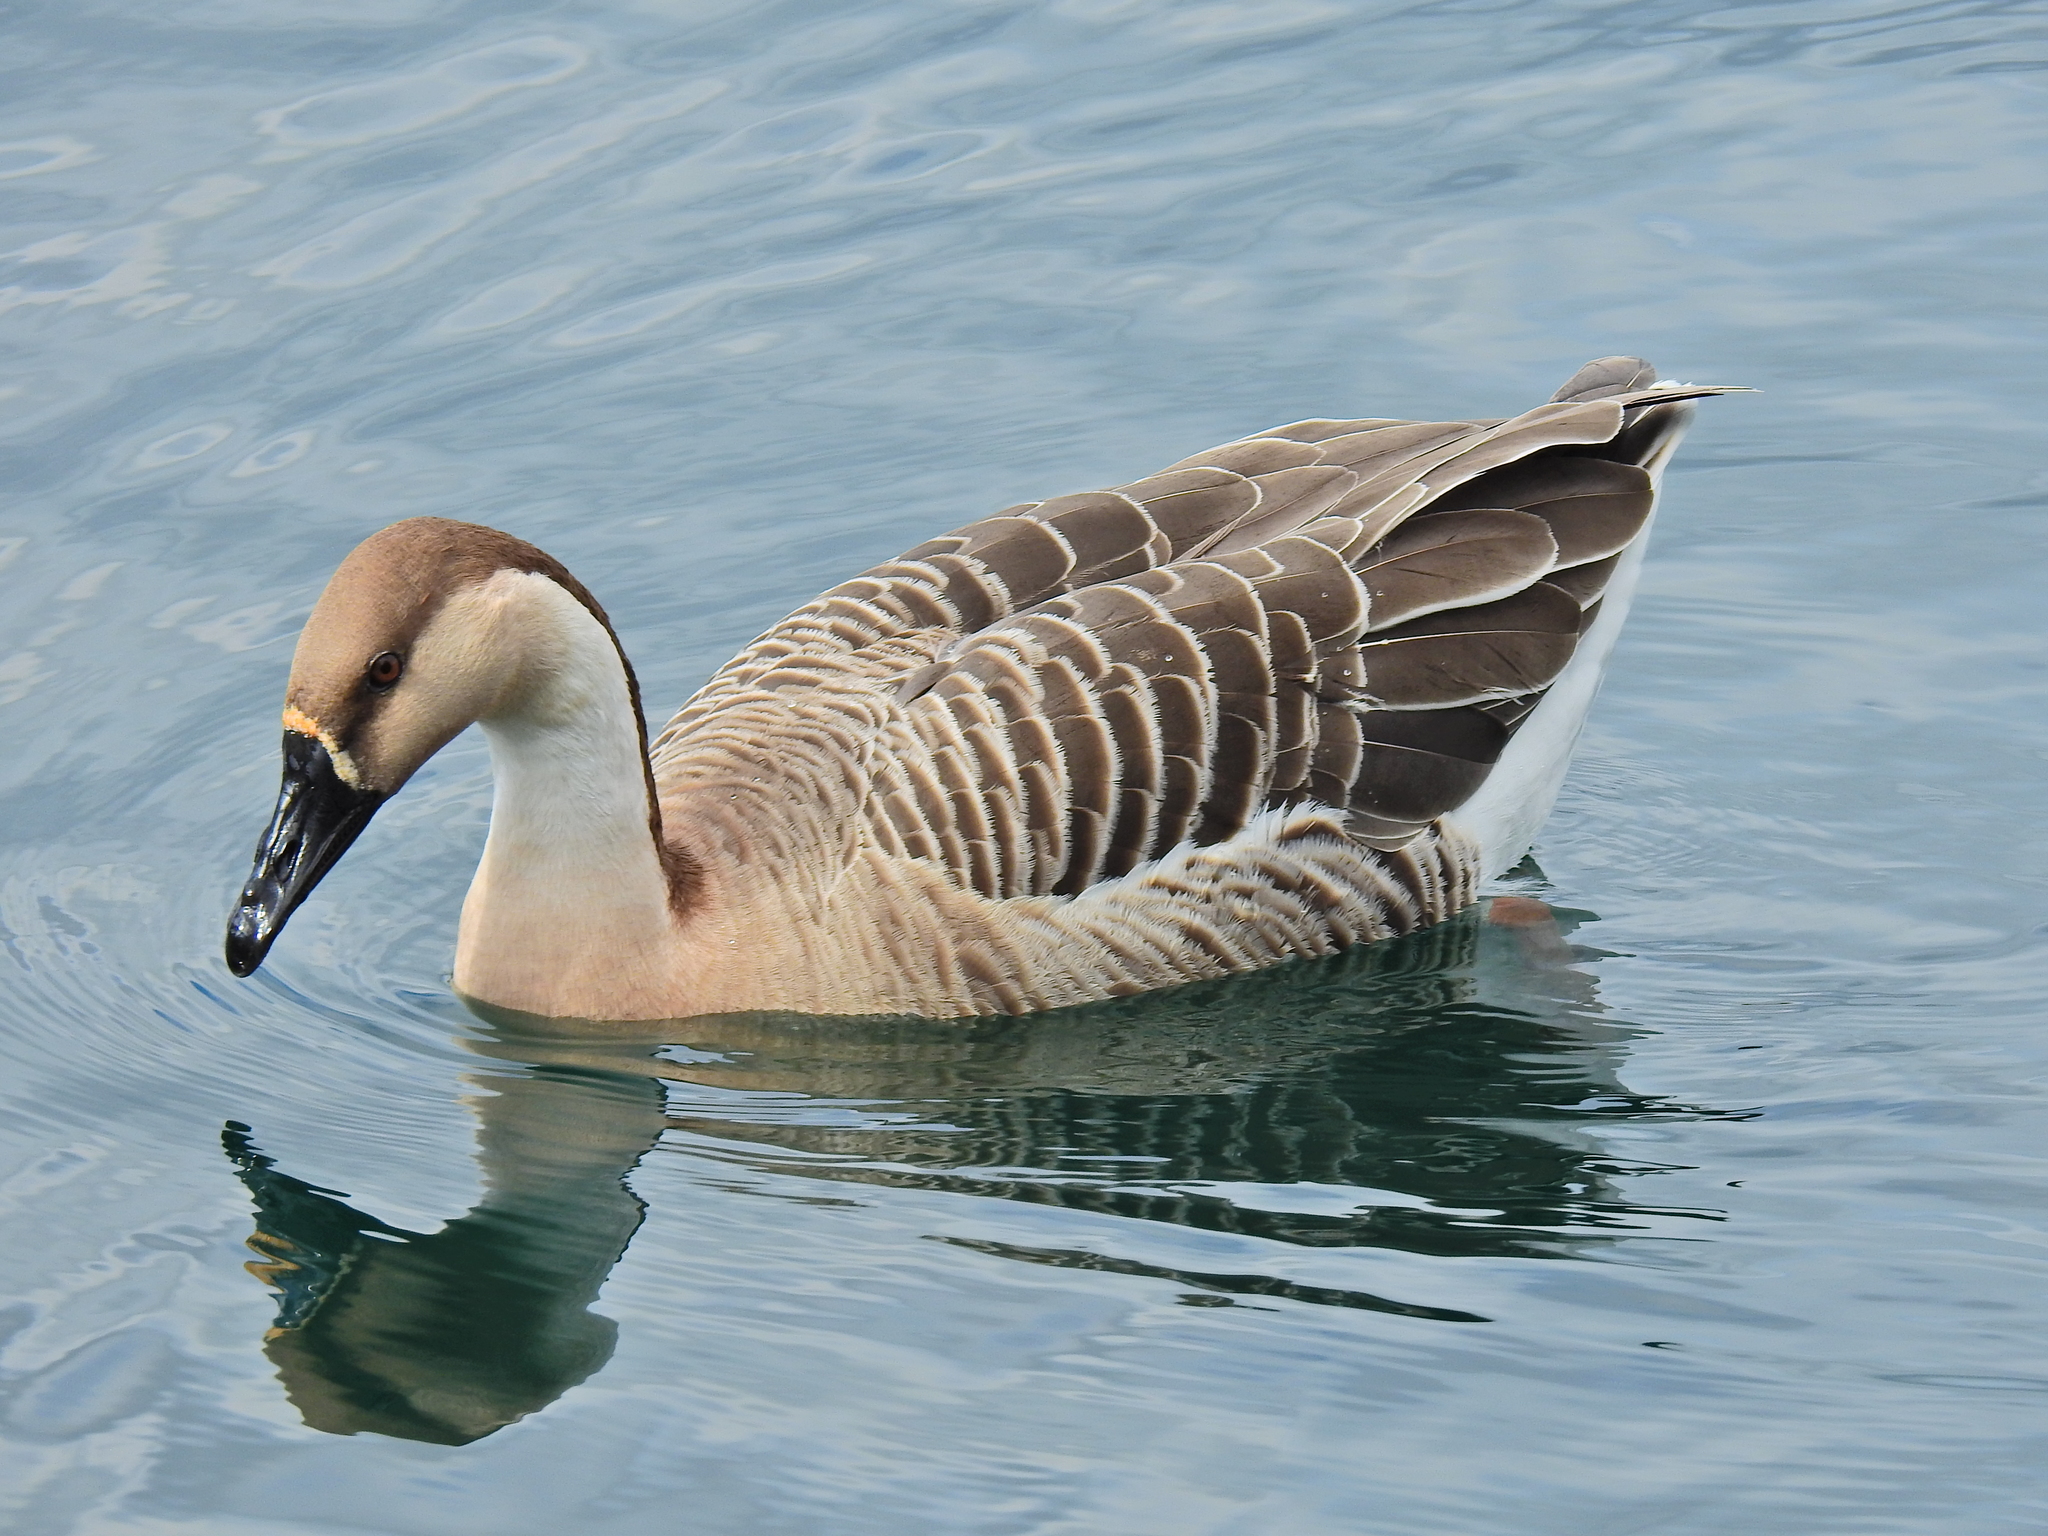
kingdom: Animalia
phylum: Chordata
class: Aves
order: Anseriformes
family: Anatidae
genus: Anser
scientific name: Anser cygnoides
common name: Swan goose
